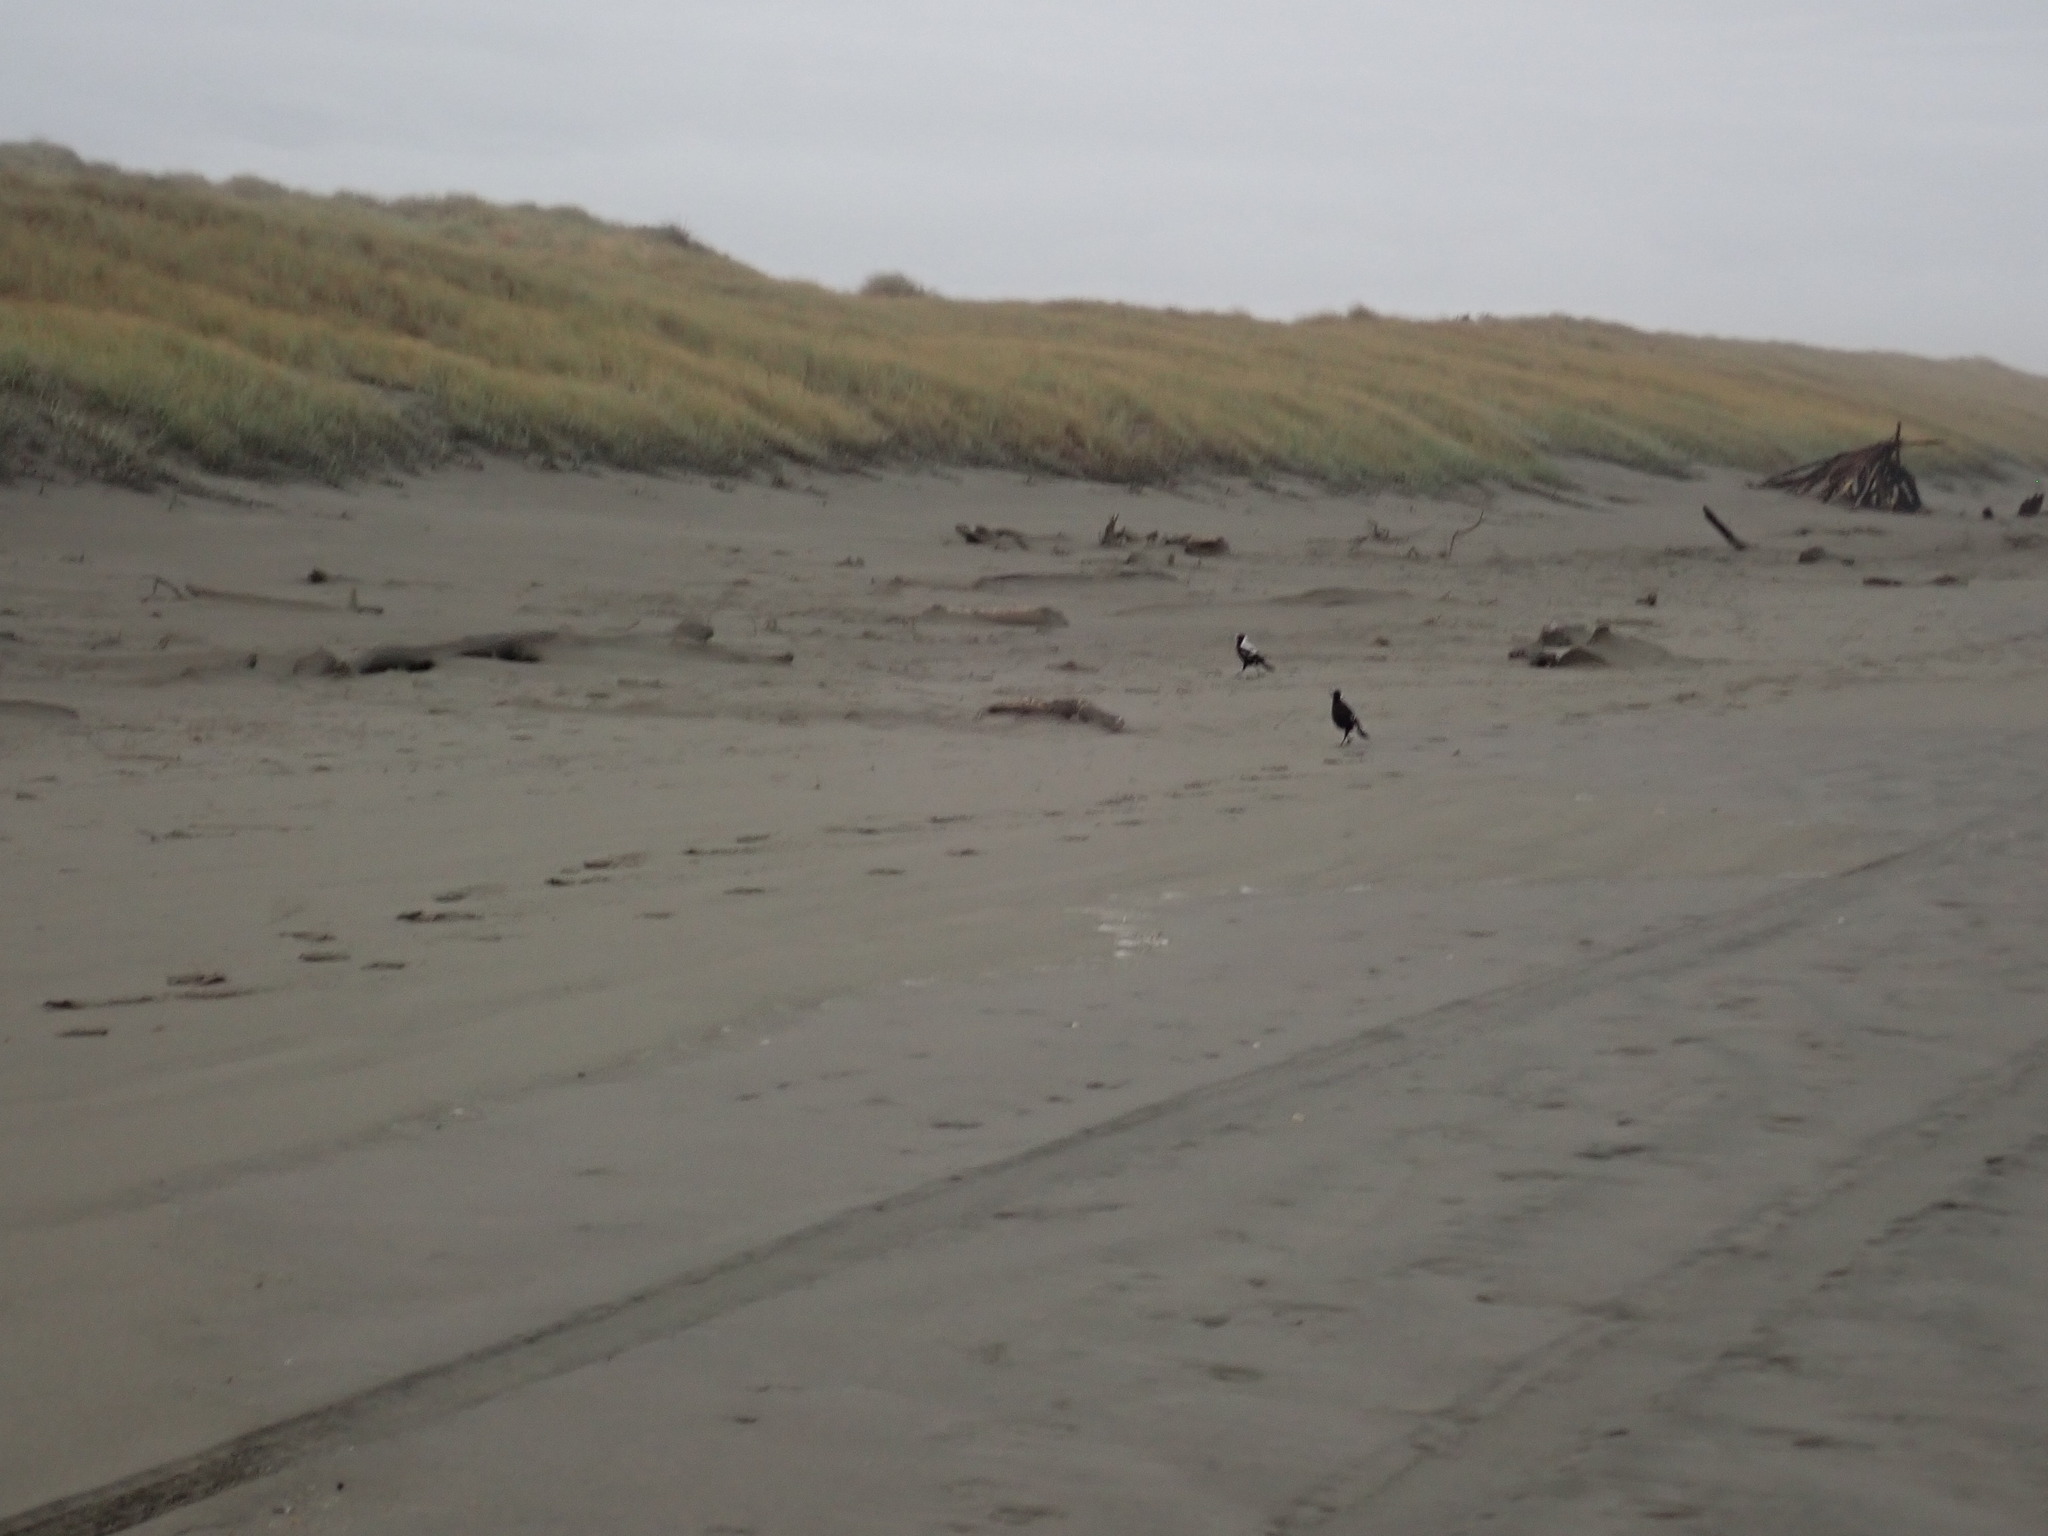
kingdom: Animalia
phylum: Chordata
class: Aves
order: Passeriformes
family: Cracticidae
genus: Gymnorhina
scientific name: Gymnorhina tibicen
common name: Australian magpie
